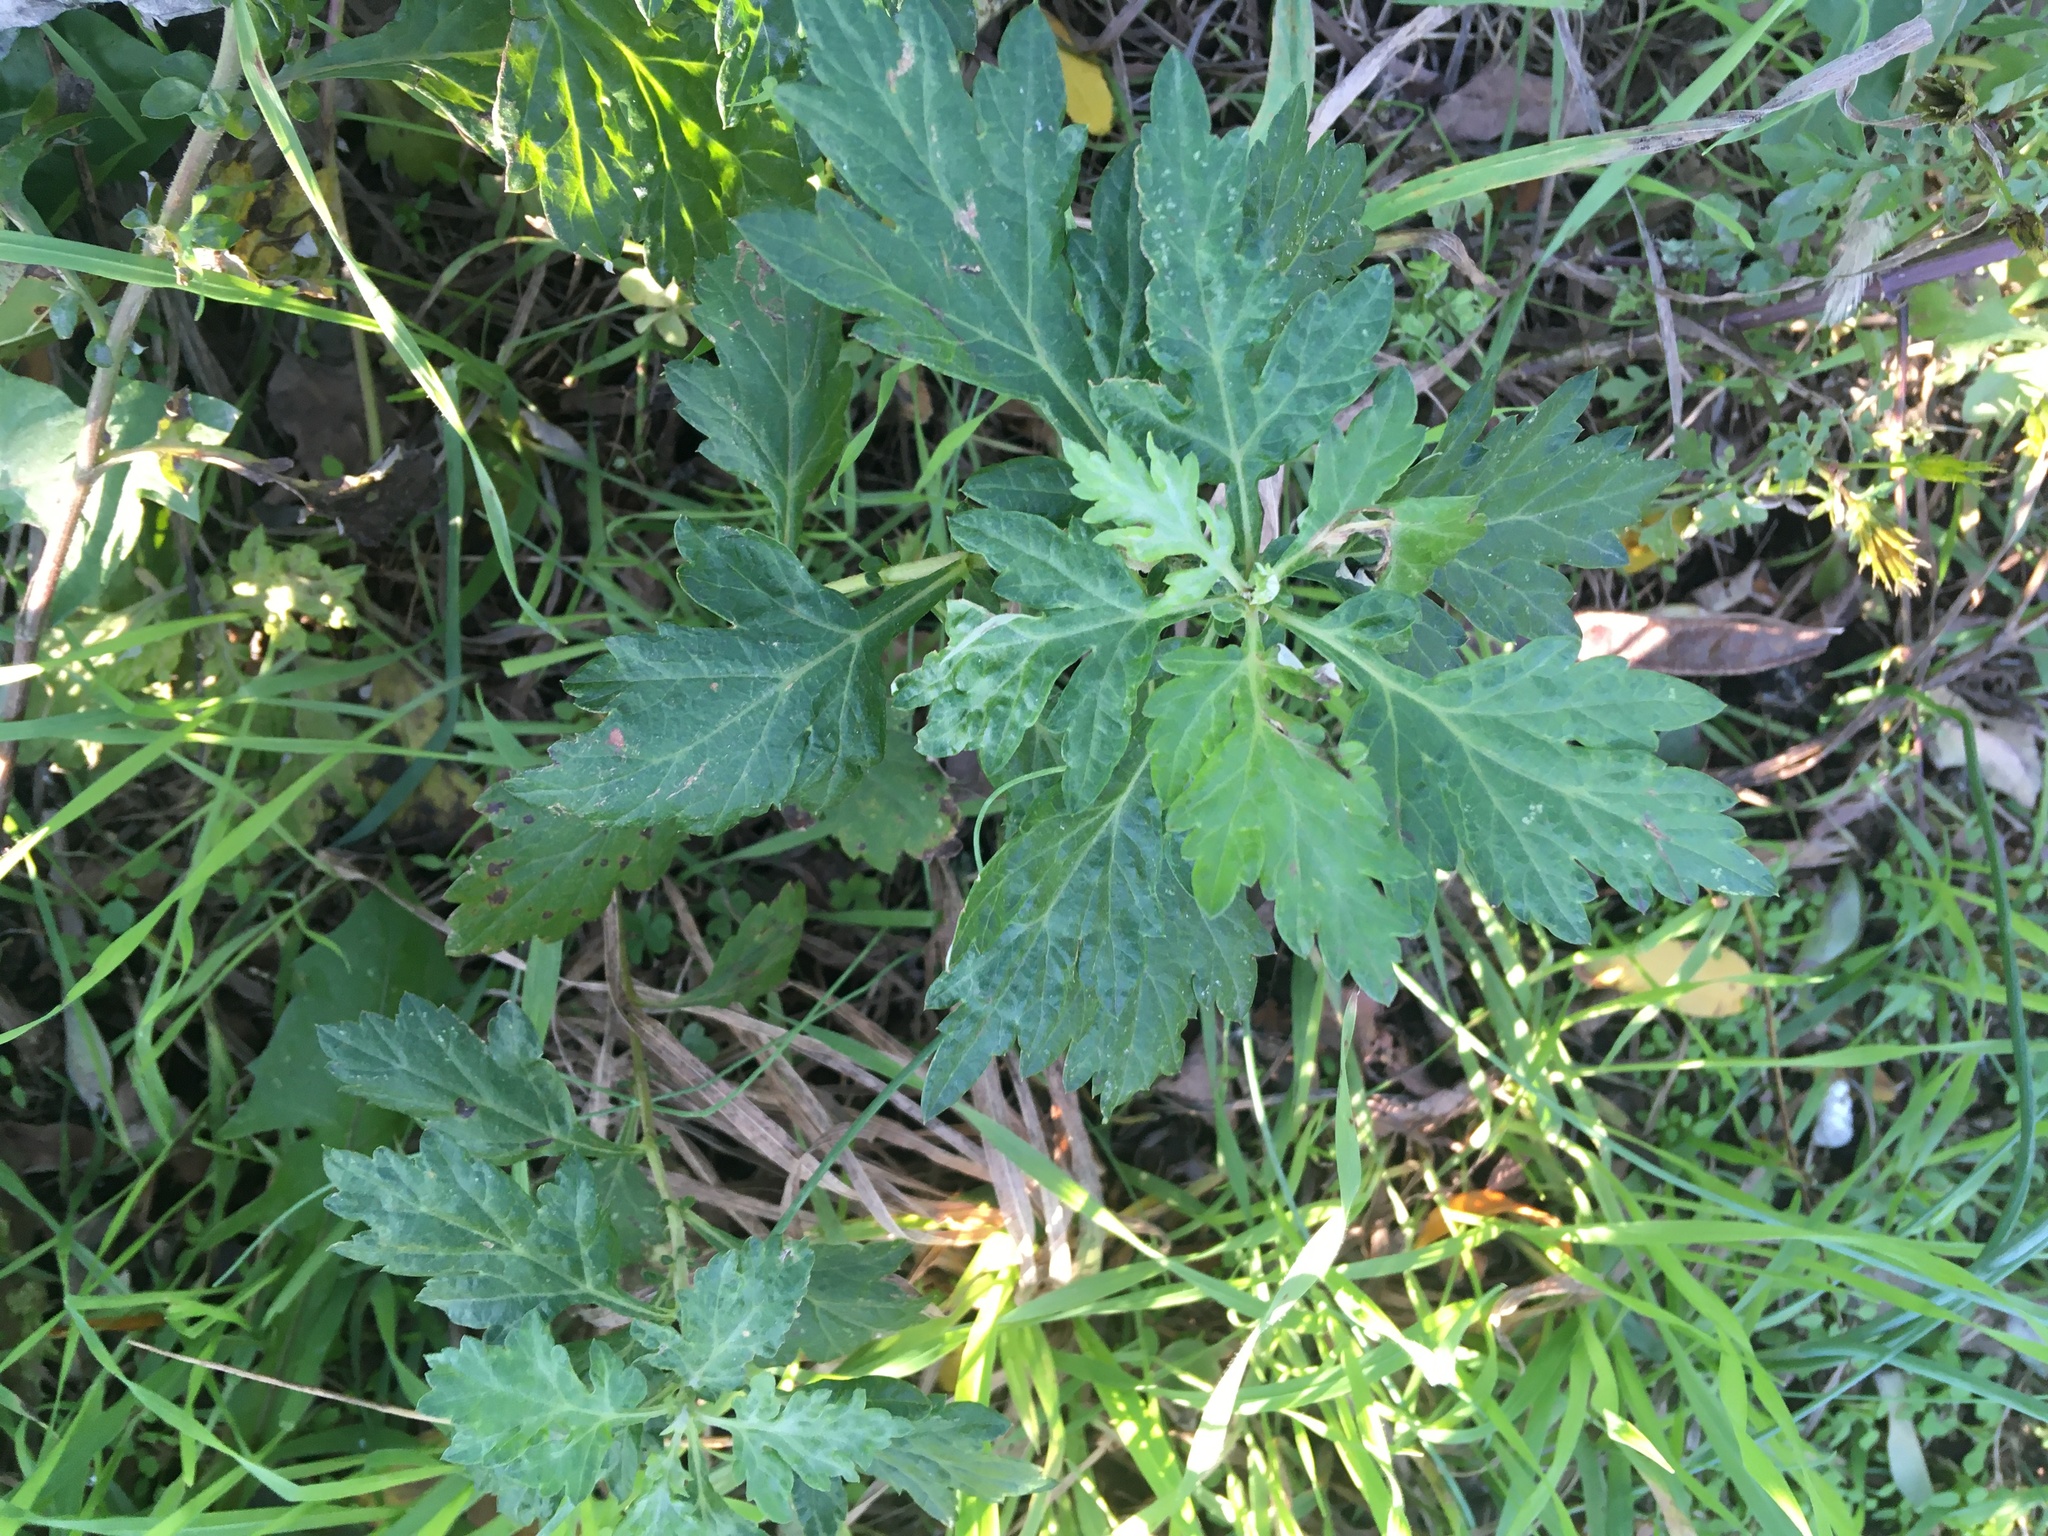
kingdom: Plantae
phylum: Tracheophyta
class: Magnoliopsida
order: Asterales
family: Asteraceae
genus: Artemisia
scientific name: Artemisia vulgaris
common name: Mugwort
